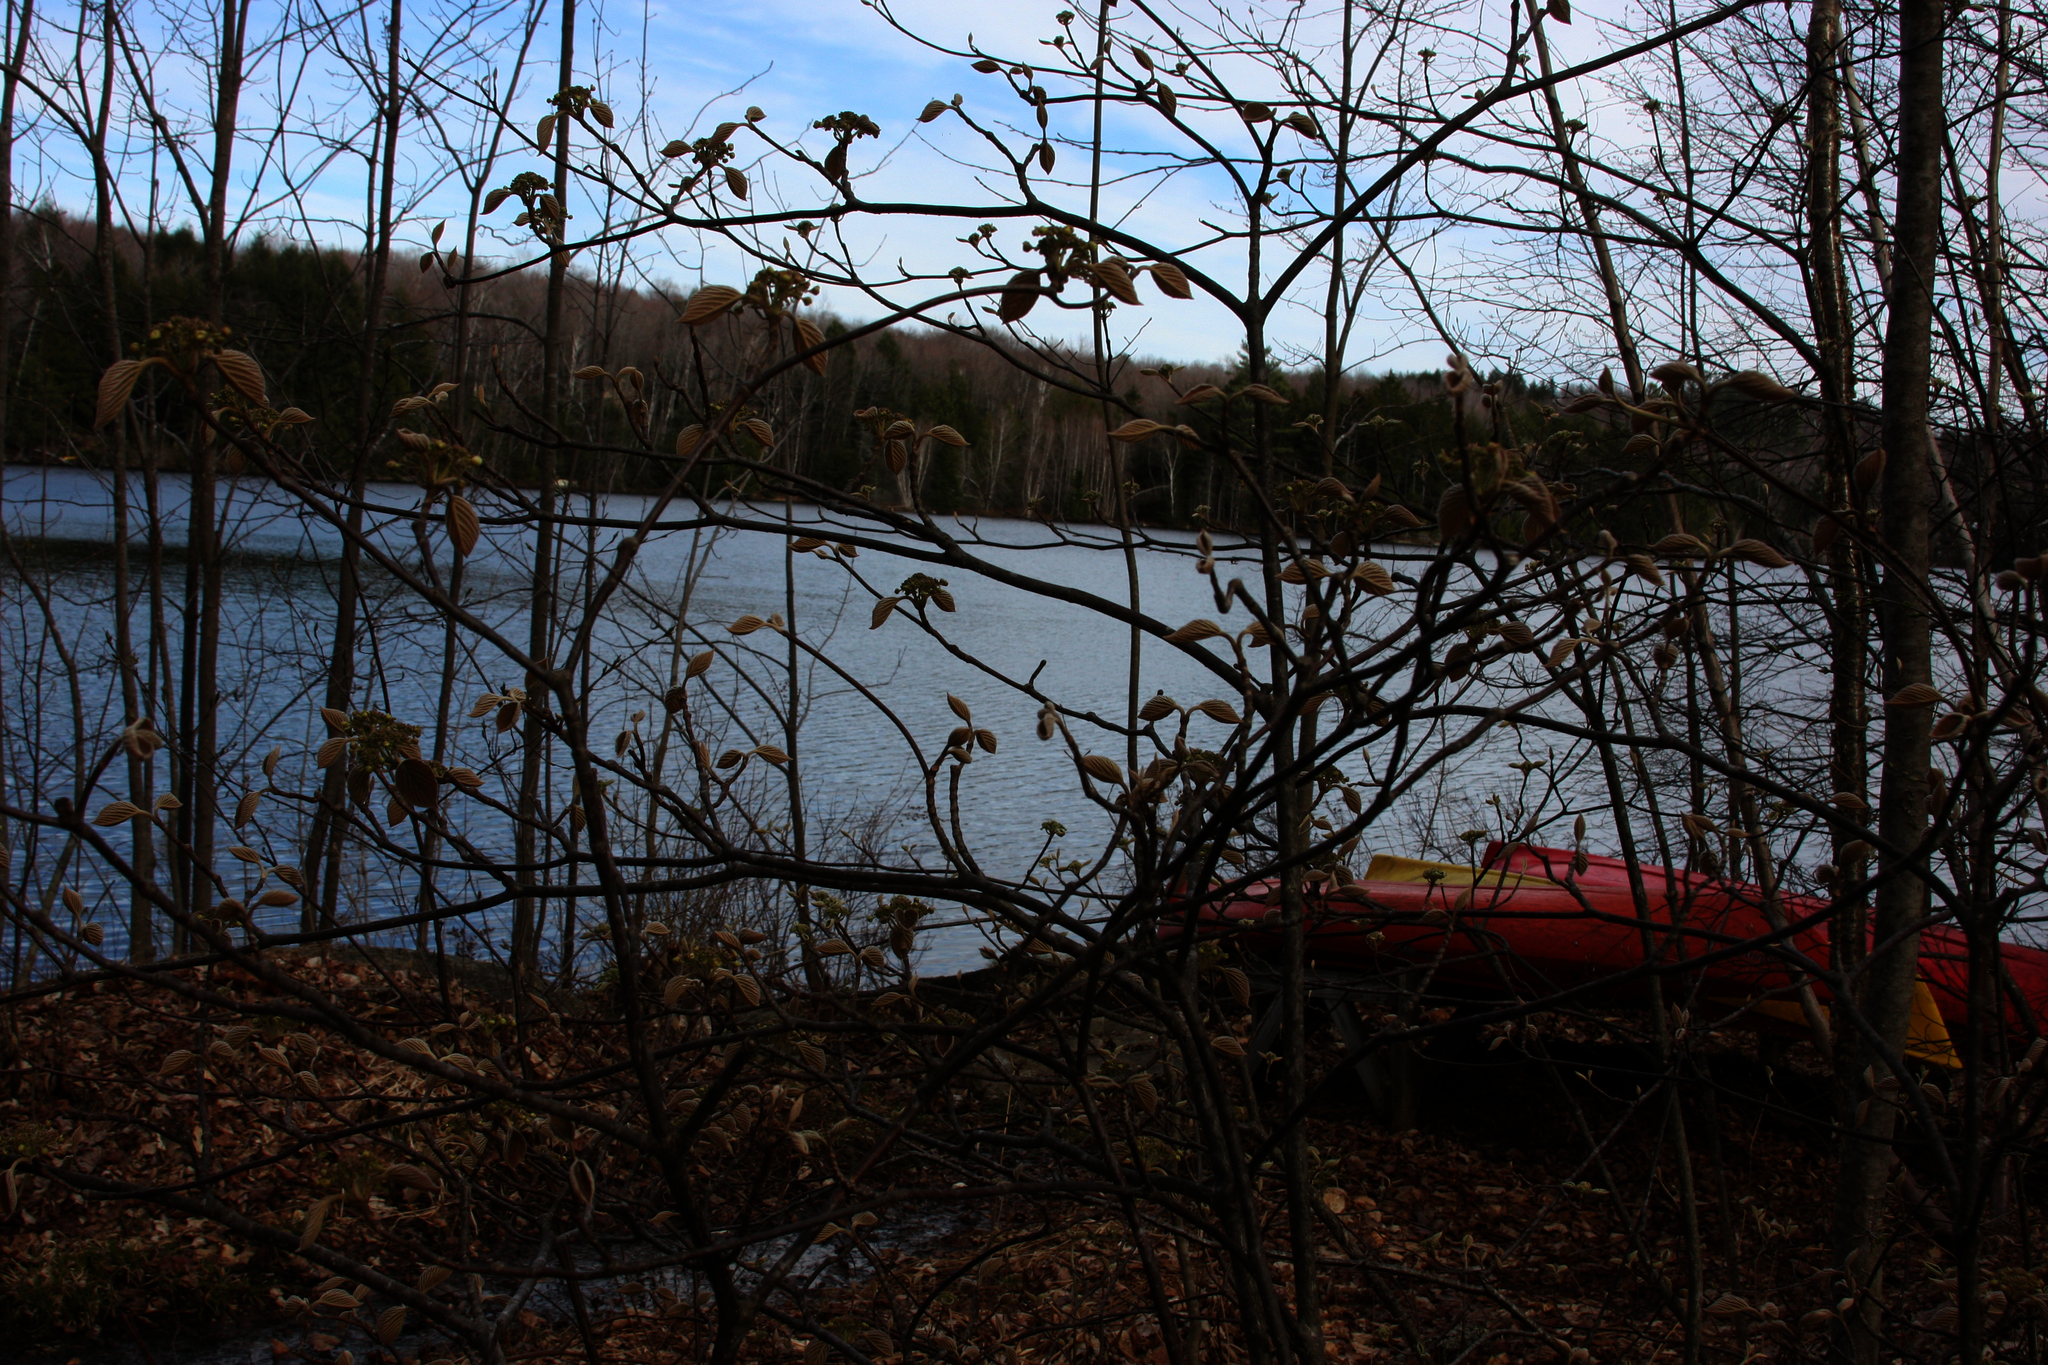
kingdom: Plantae
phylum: Tracheophyta
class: Magnoliopsida
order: Dipsacales
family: Viburnaceae
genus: Viburnum
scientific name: Viburnum lantanoides
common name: Hobblebush
